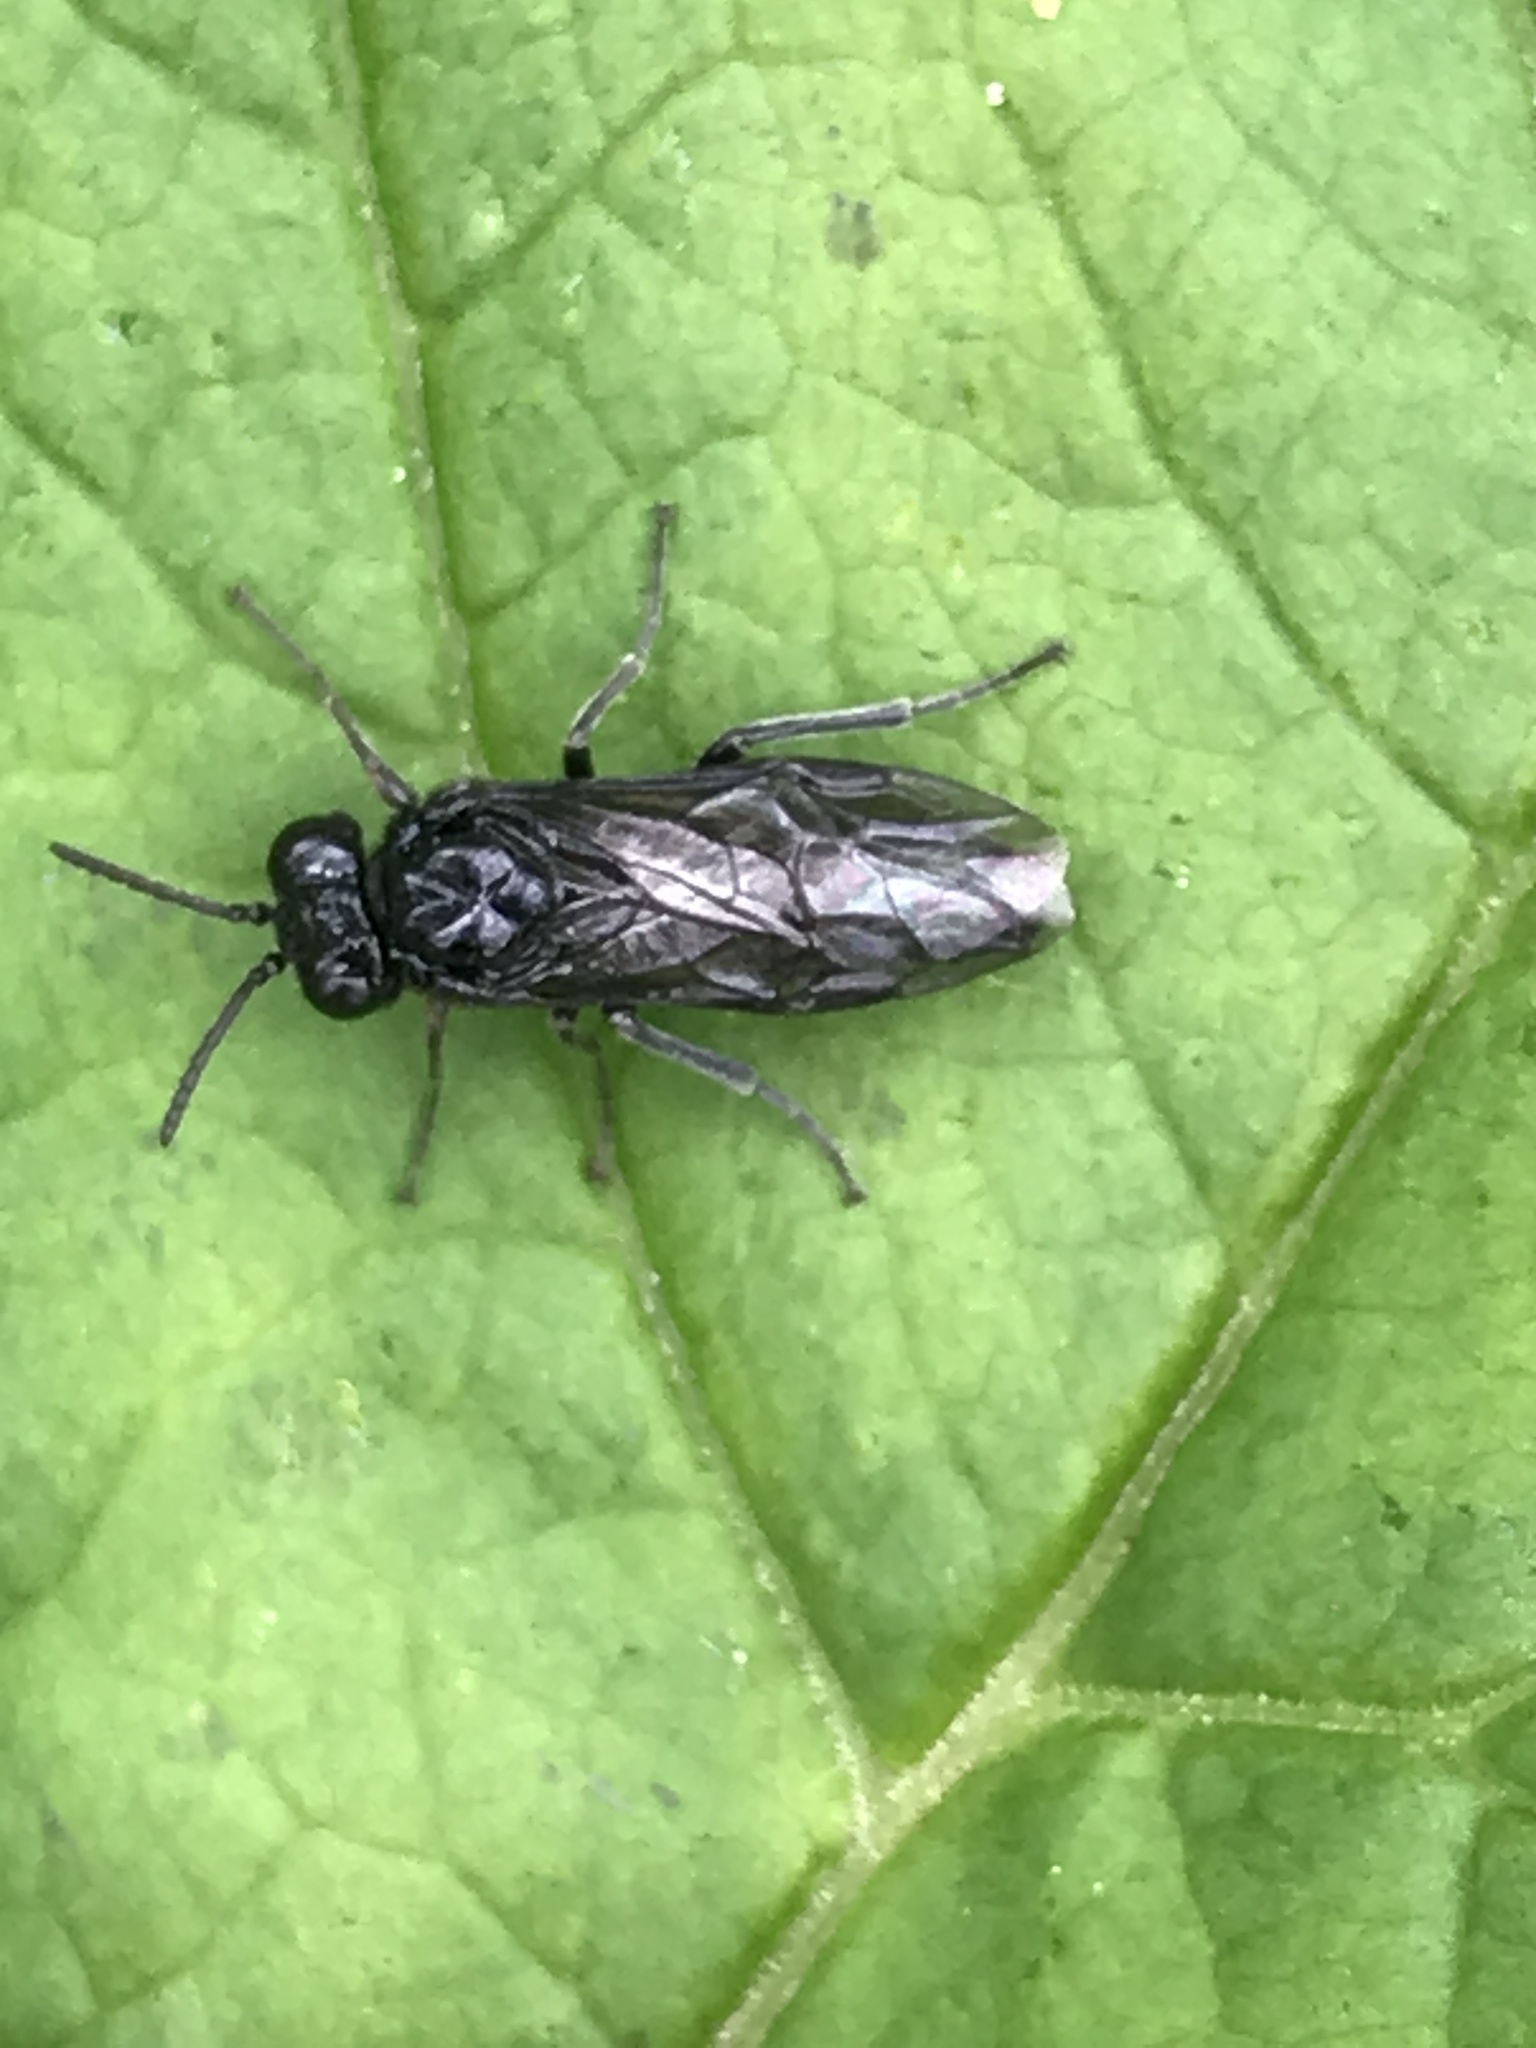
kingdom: Animalia
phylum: Arthropoda
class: Insecta
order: Hymenoptera
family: Tenthredinidae
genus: Tomostethus
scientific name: Tomostethus nigritus
